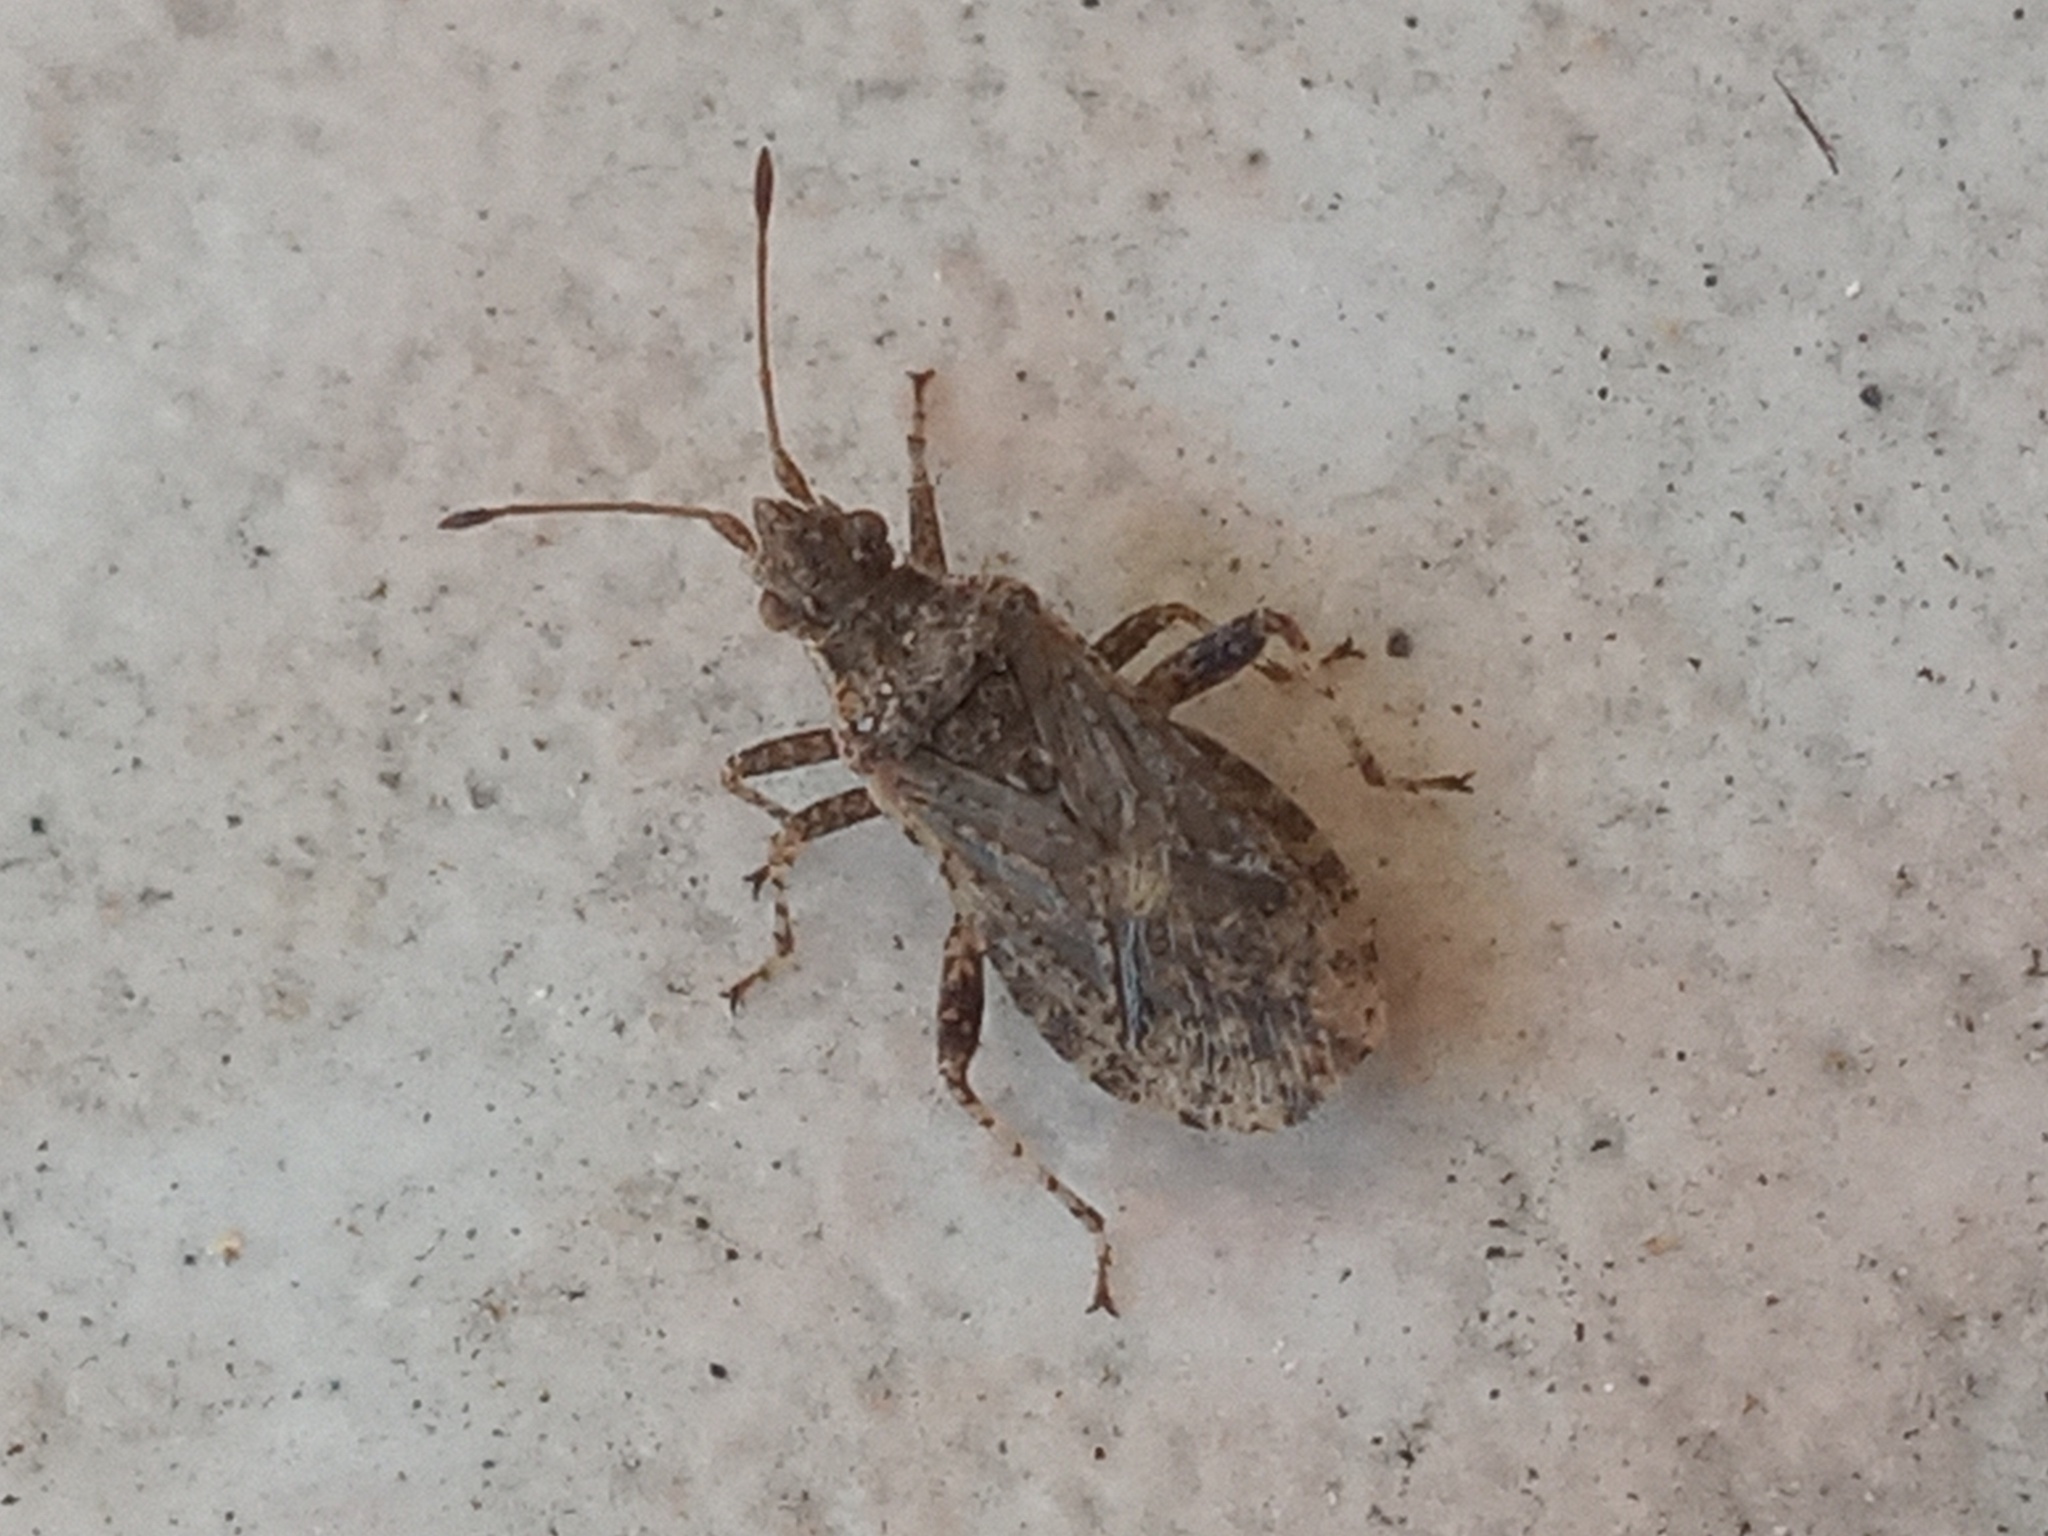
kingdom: Animalia
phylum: Arthropoda
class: Insecta
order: Hemiptera
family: Rhopalidae
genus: Aufeius
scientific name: Aufeius impressicollis
